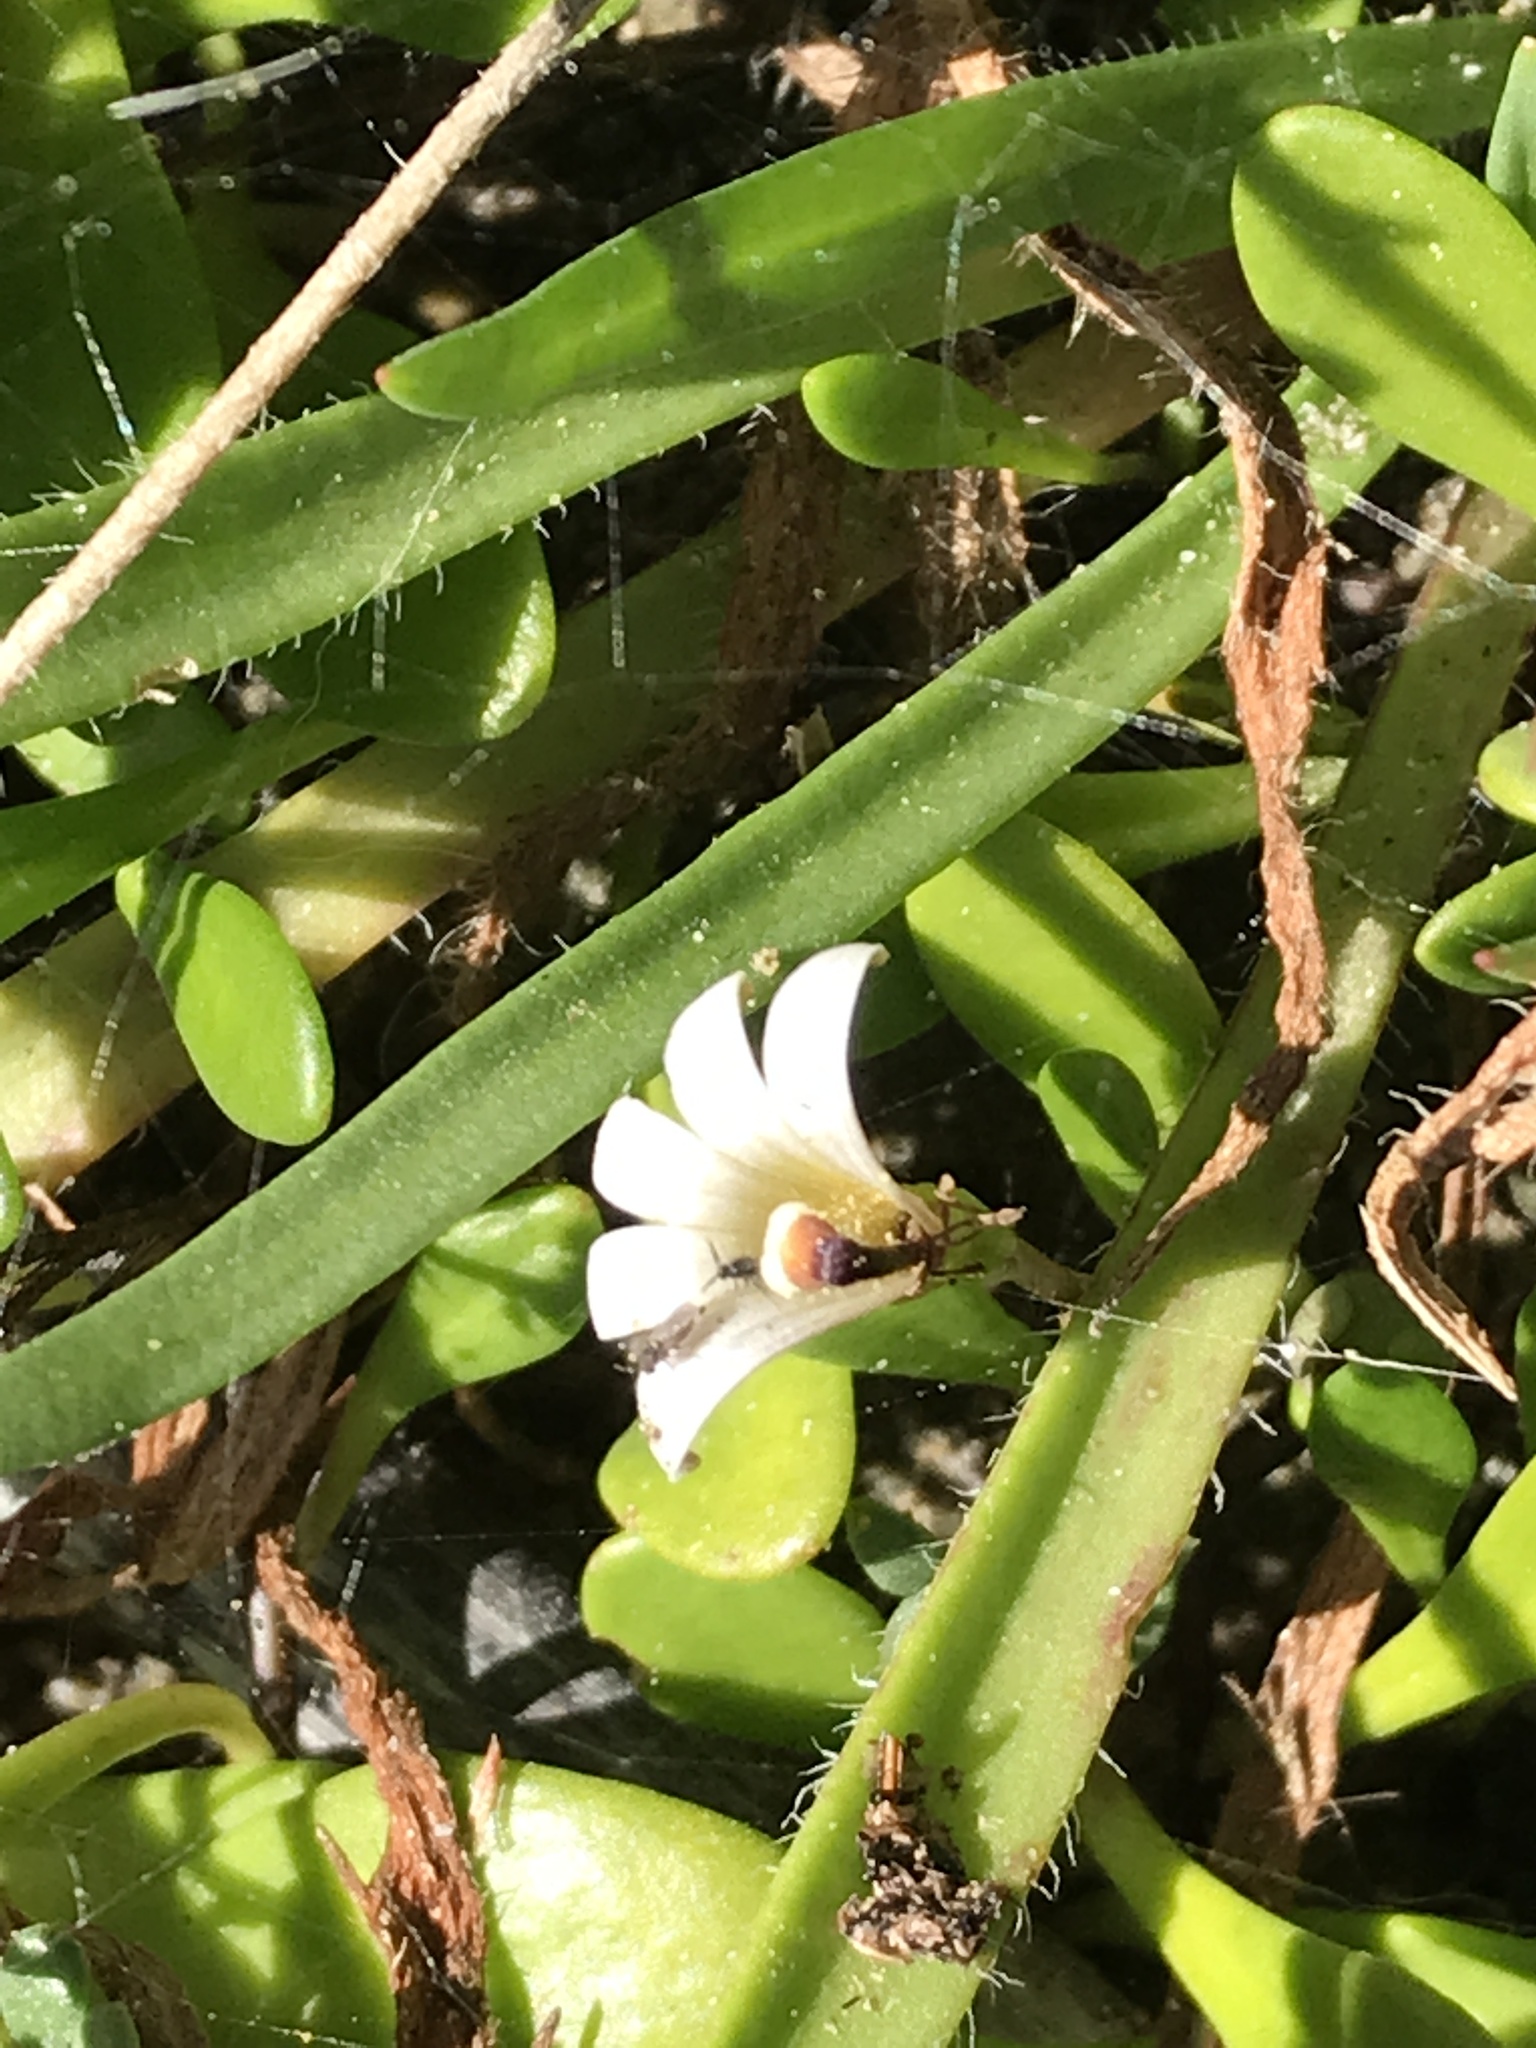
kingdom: Plantae
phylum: Tracheophyta
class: Magnoliopsida
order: Asterales
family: Goodeniaceae
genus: Goodenia
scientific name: Goodenia radicans
